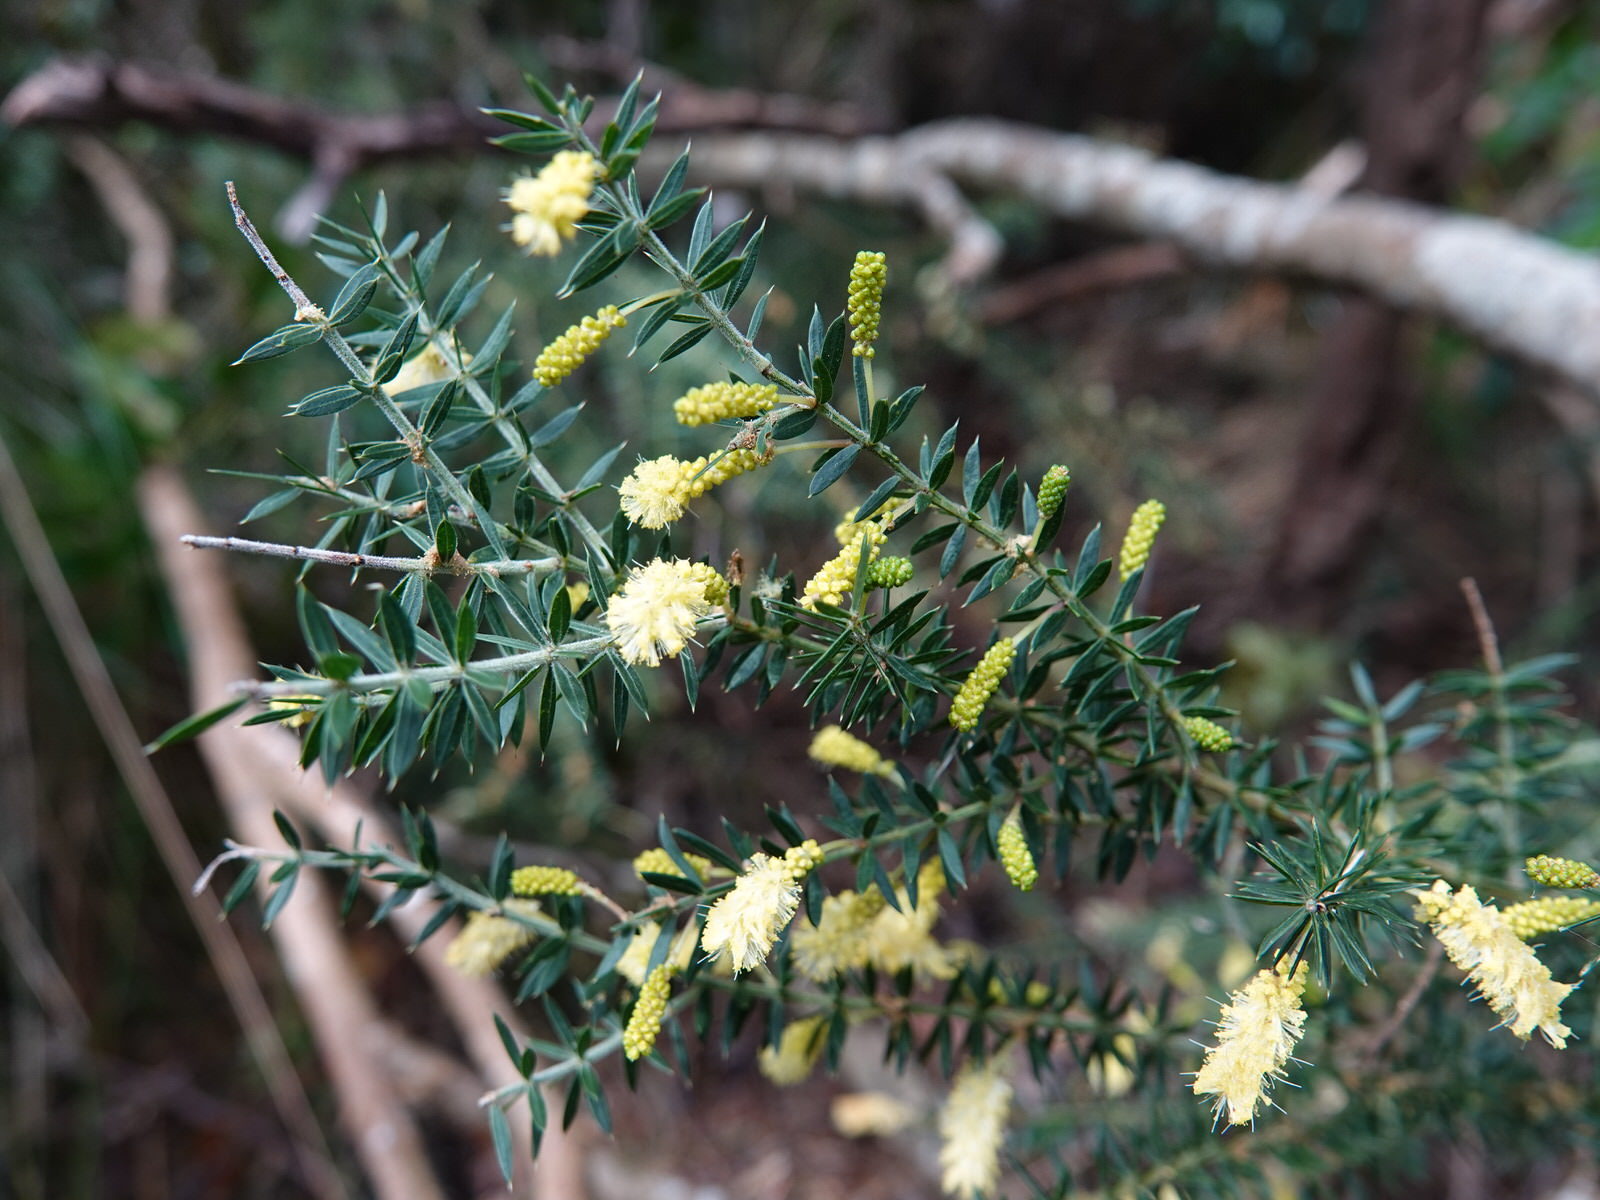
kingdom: Plantae
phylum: Tracheophyta
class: Magnoliopsida
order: Fabales
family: Fabaceae
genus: Acacia
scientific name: Acacia verticillata
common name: Prickly moses
